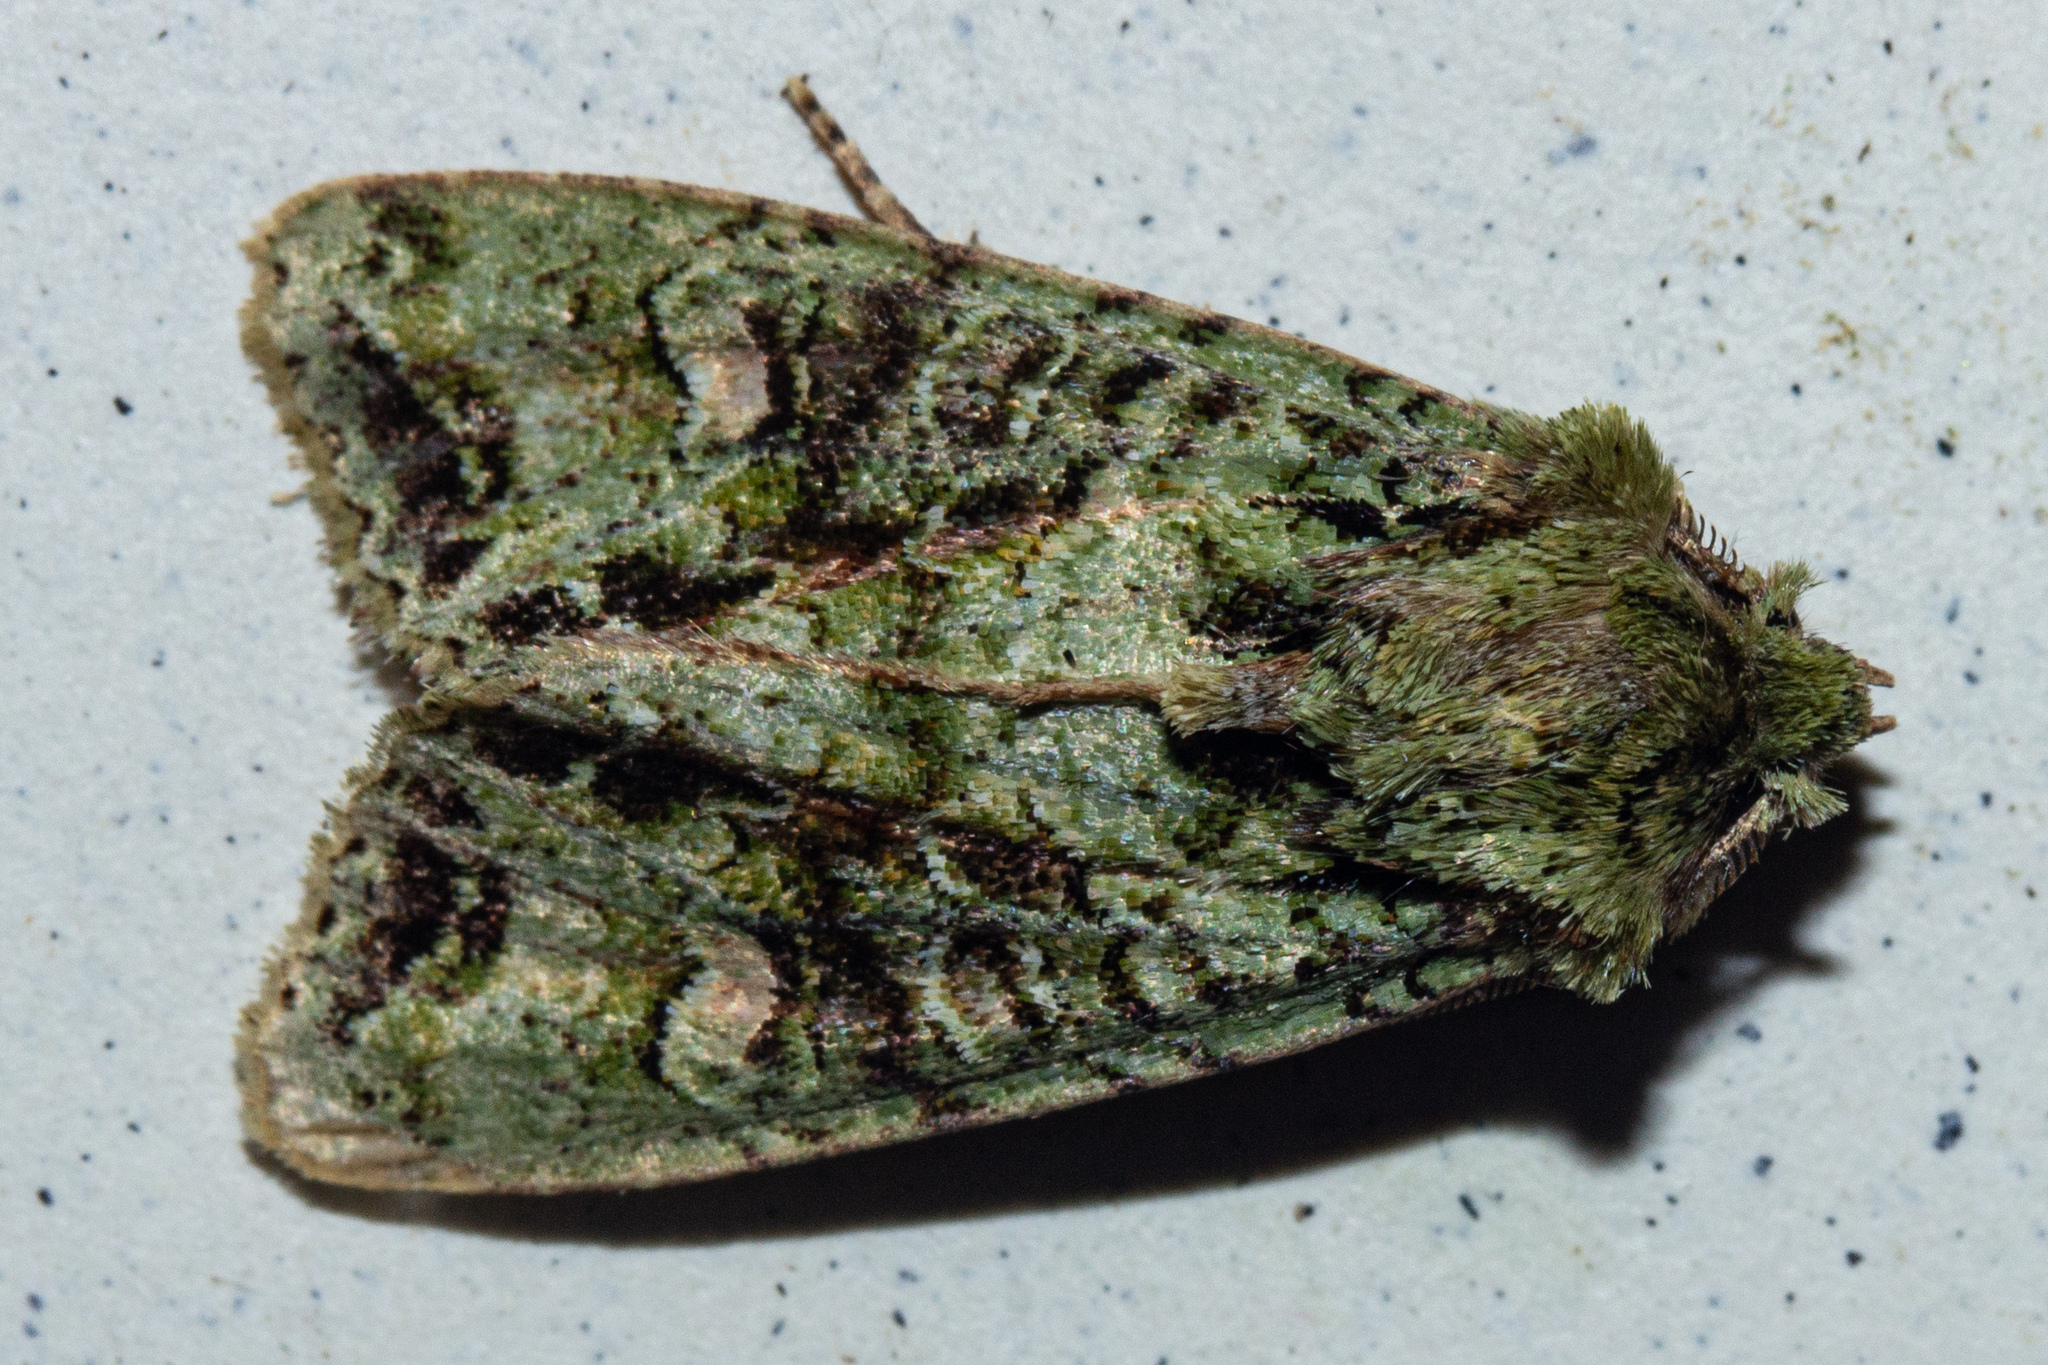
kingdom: Animalia
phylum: Arthropoda
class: Insecta
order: Lepidoptera
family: Noctuidae
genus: Ichneutica
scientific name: Ichneutica
